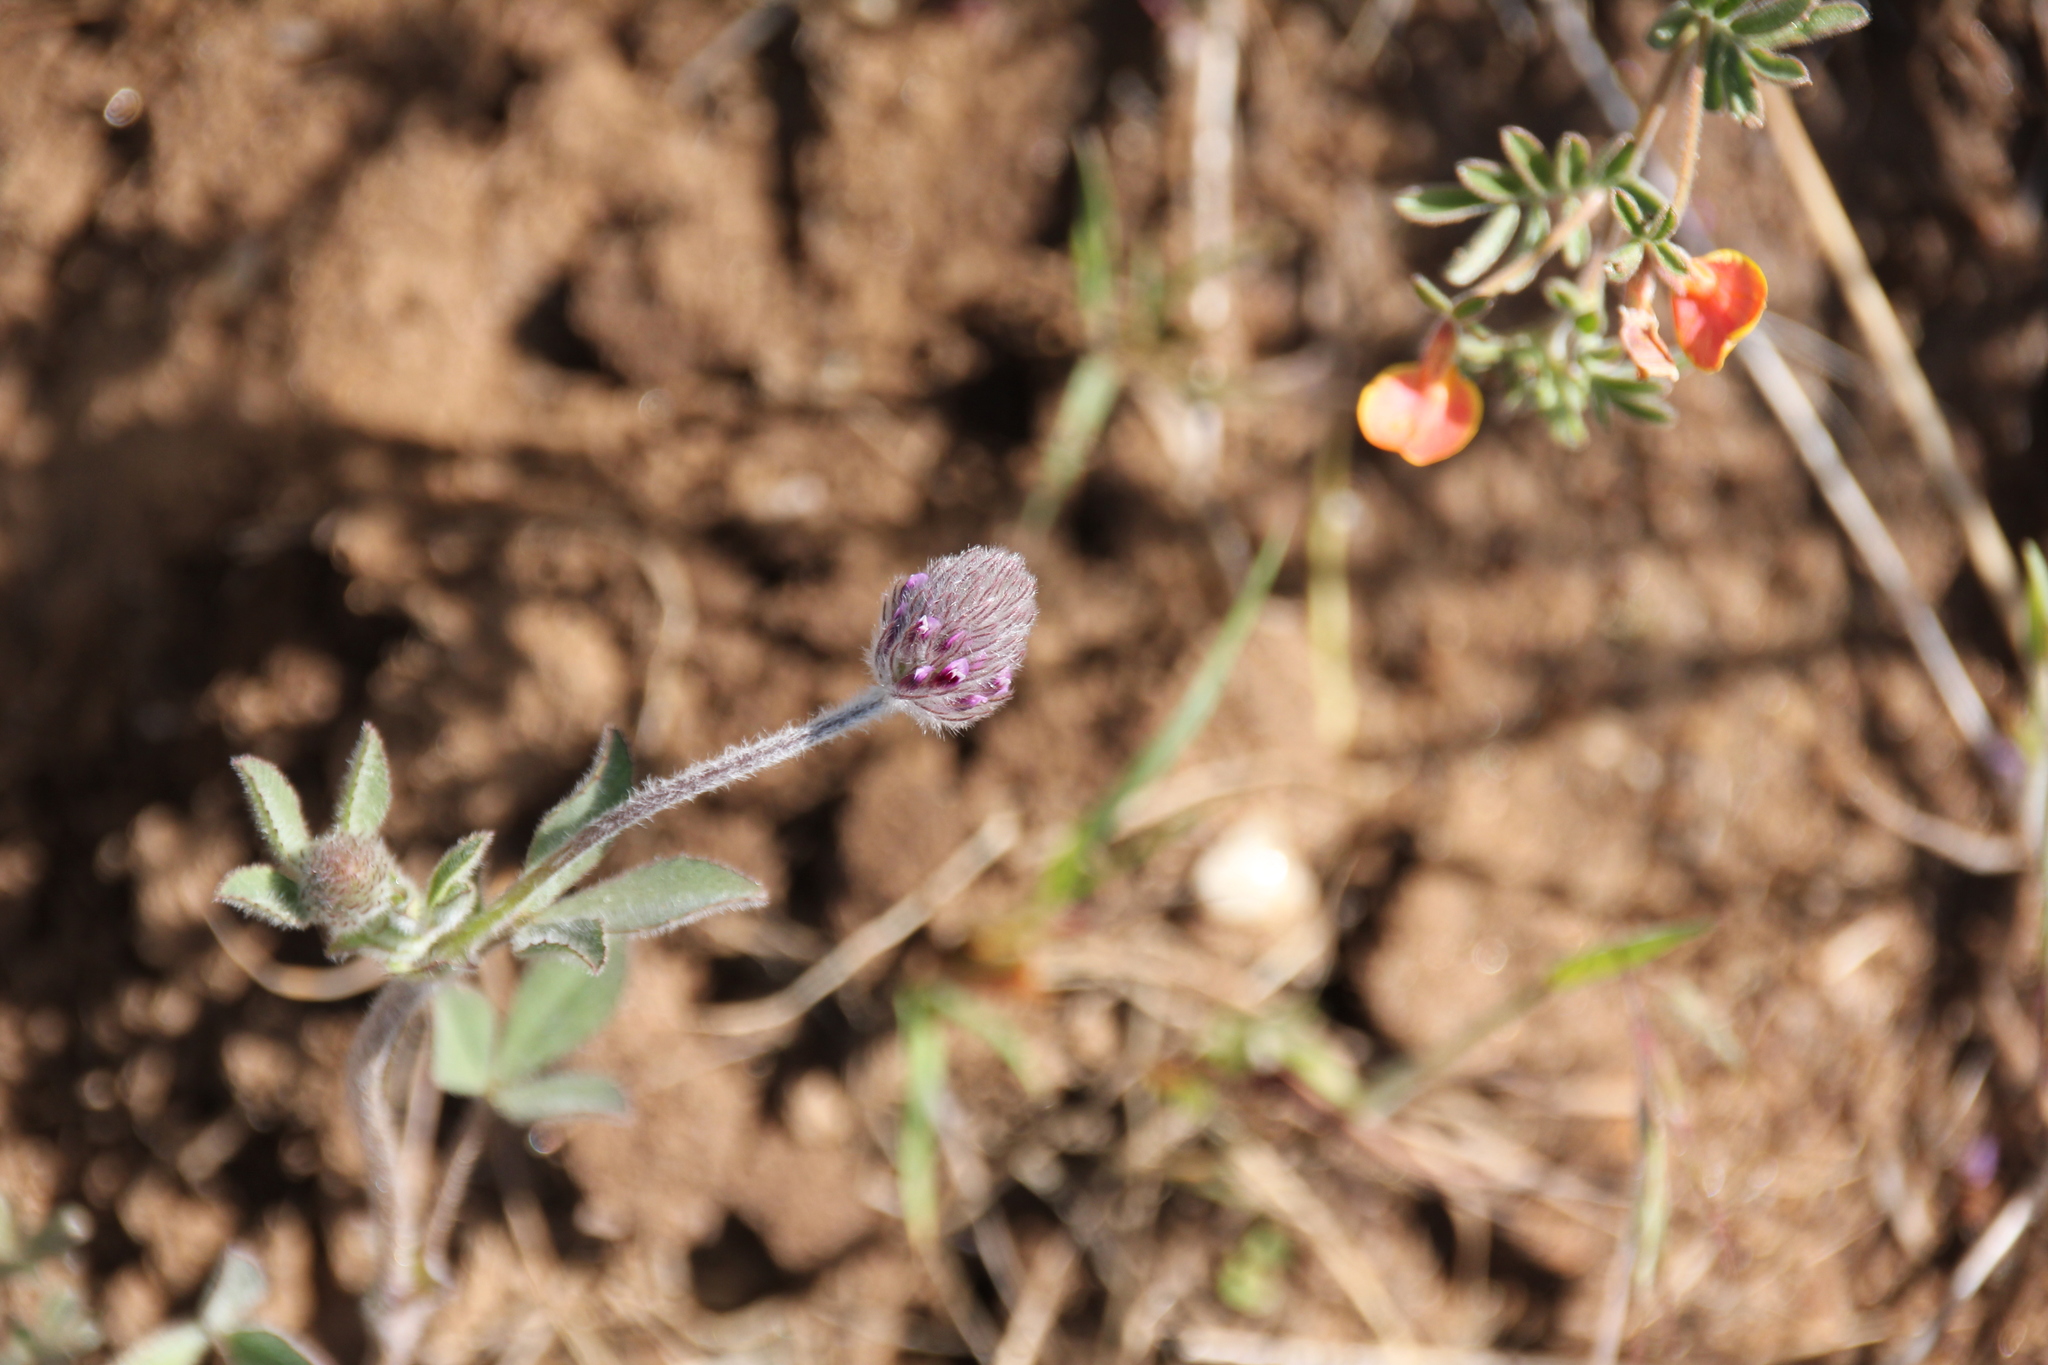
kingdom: Plantae
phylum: Tracheophyta
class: Magnoliopsida
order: Fabales
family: Fabaceae
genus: Trifolium
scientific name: Trifolium albopurpureum
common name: Rancheria clover
